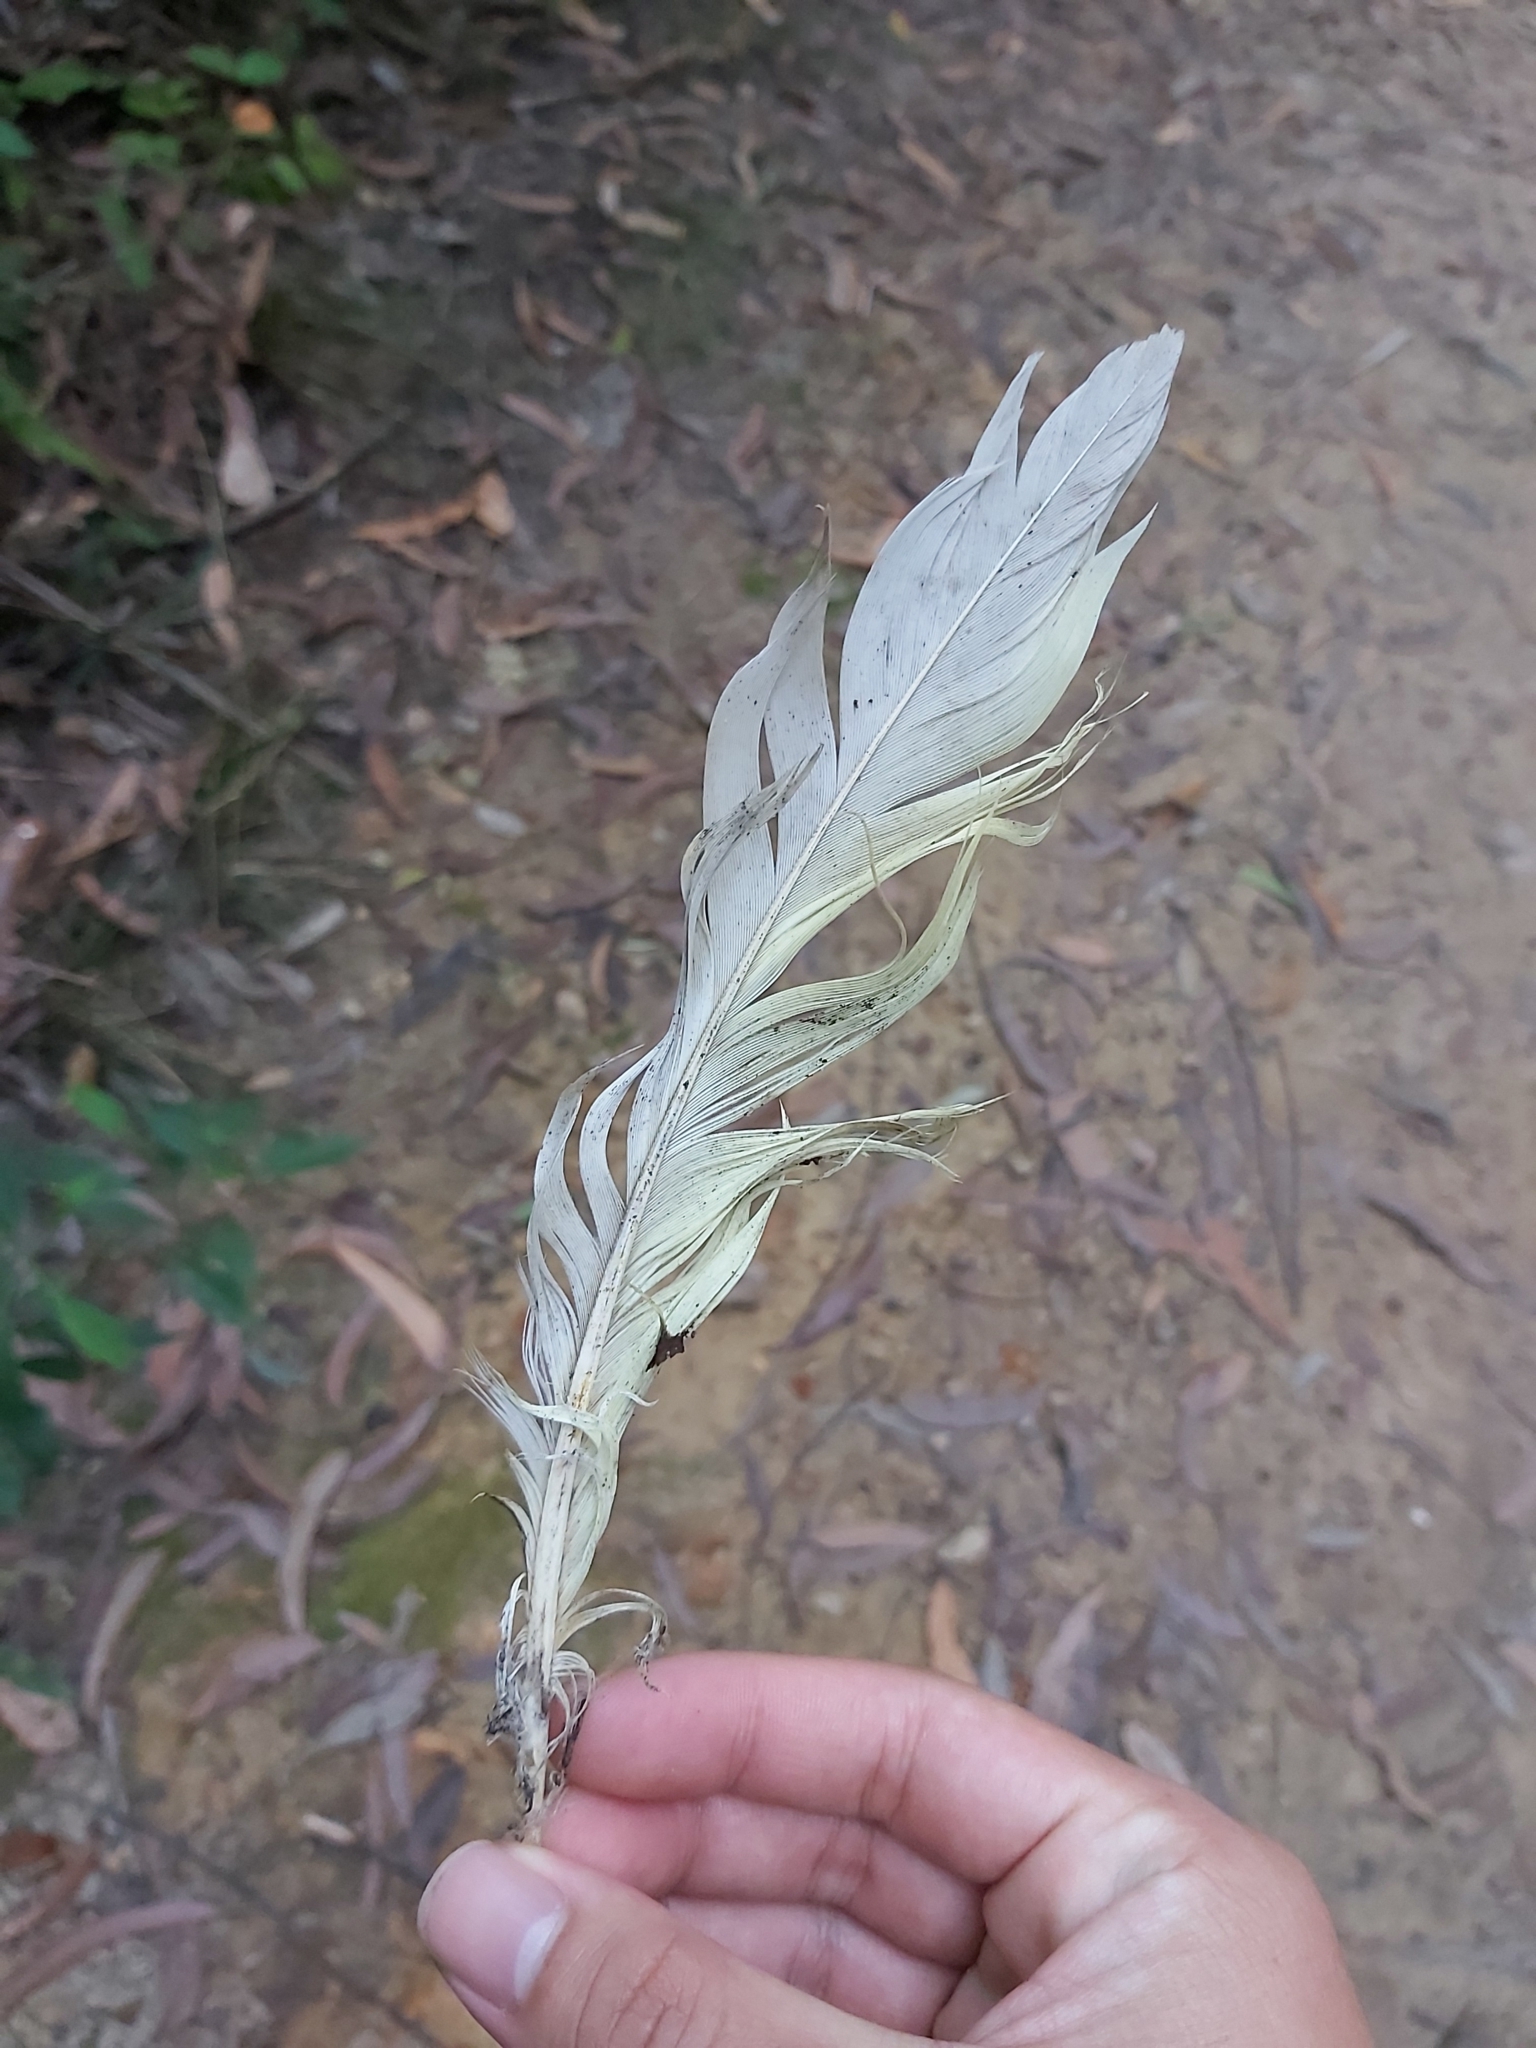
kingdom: Animalia
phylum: Chordata
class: Aves
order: Psittaciformes
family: Psittacidae
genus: Cacatua
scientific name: Cacatua galerita
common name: Sulphur-crested cockatoo
